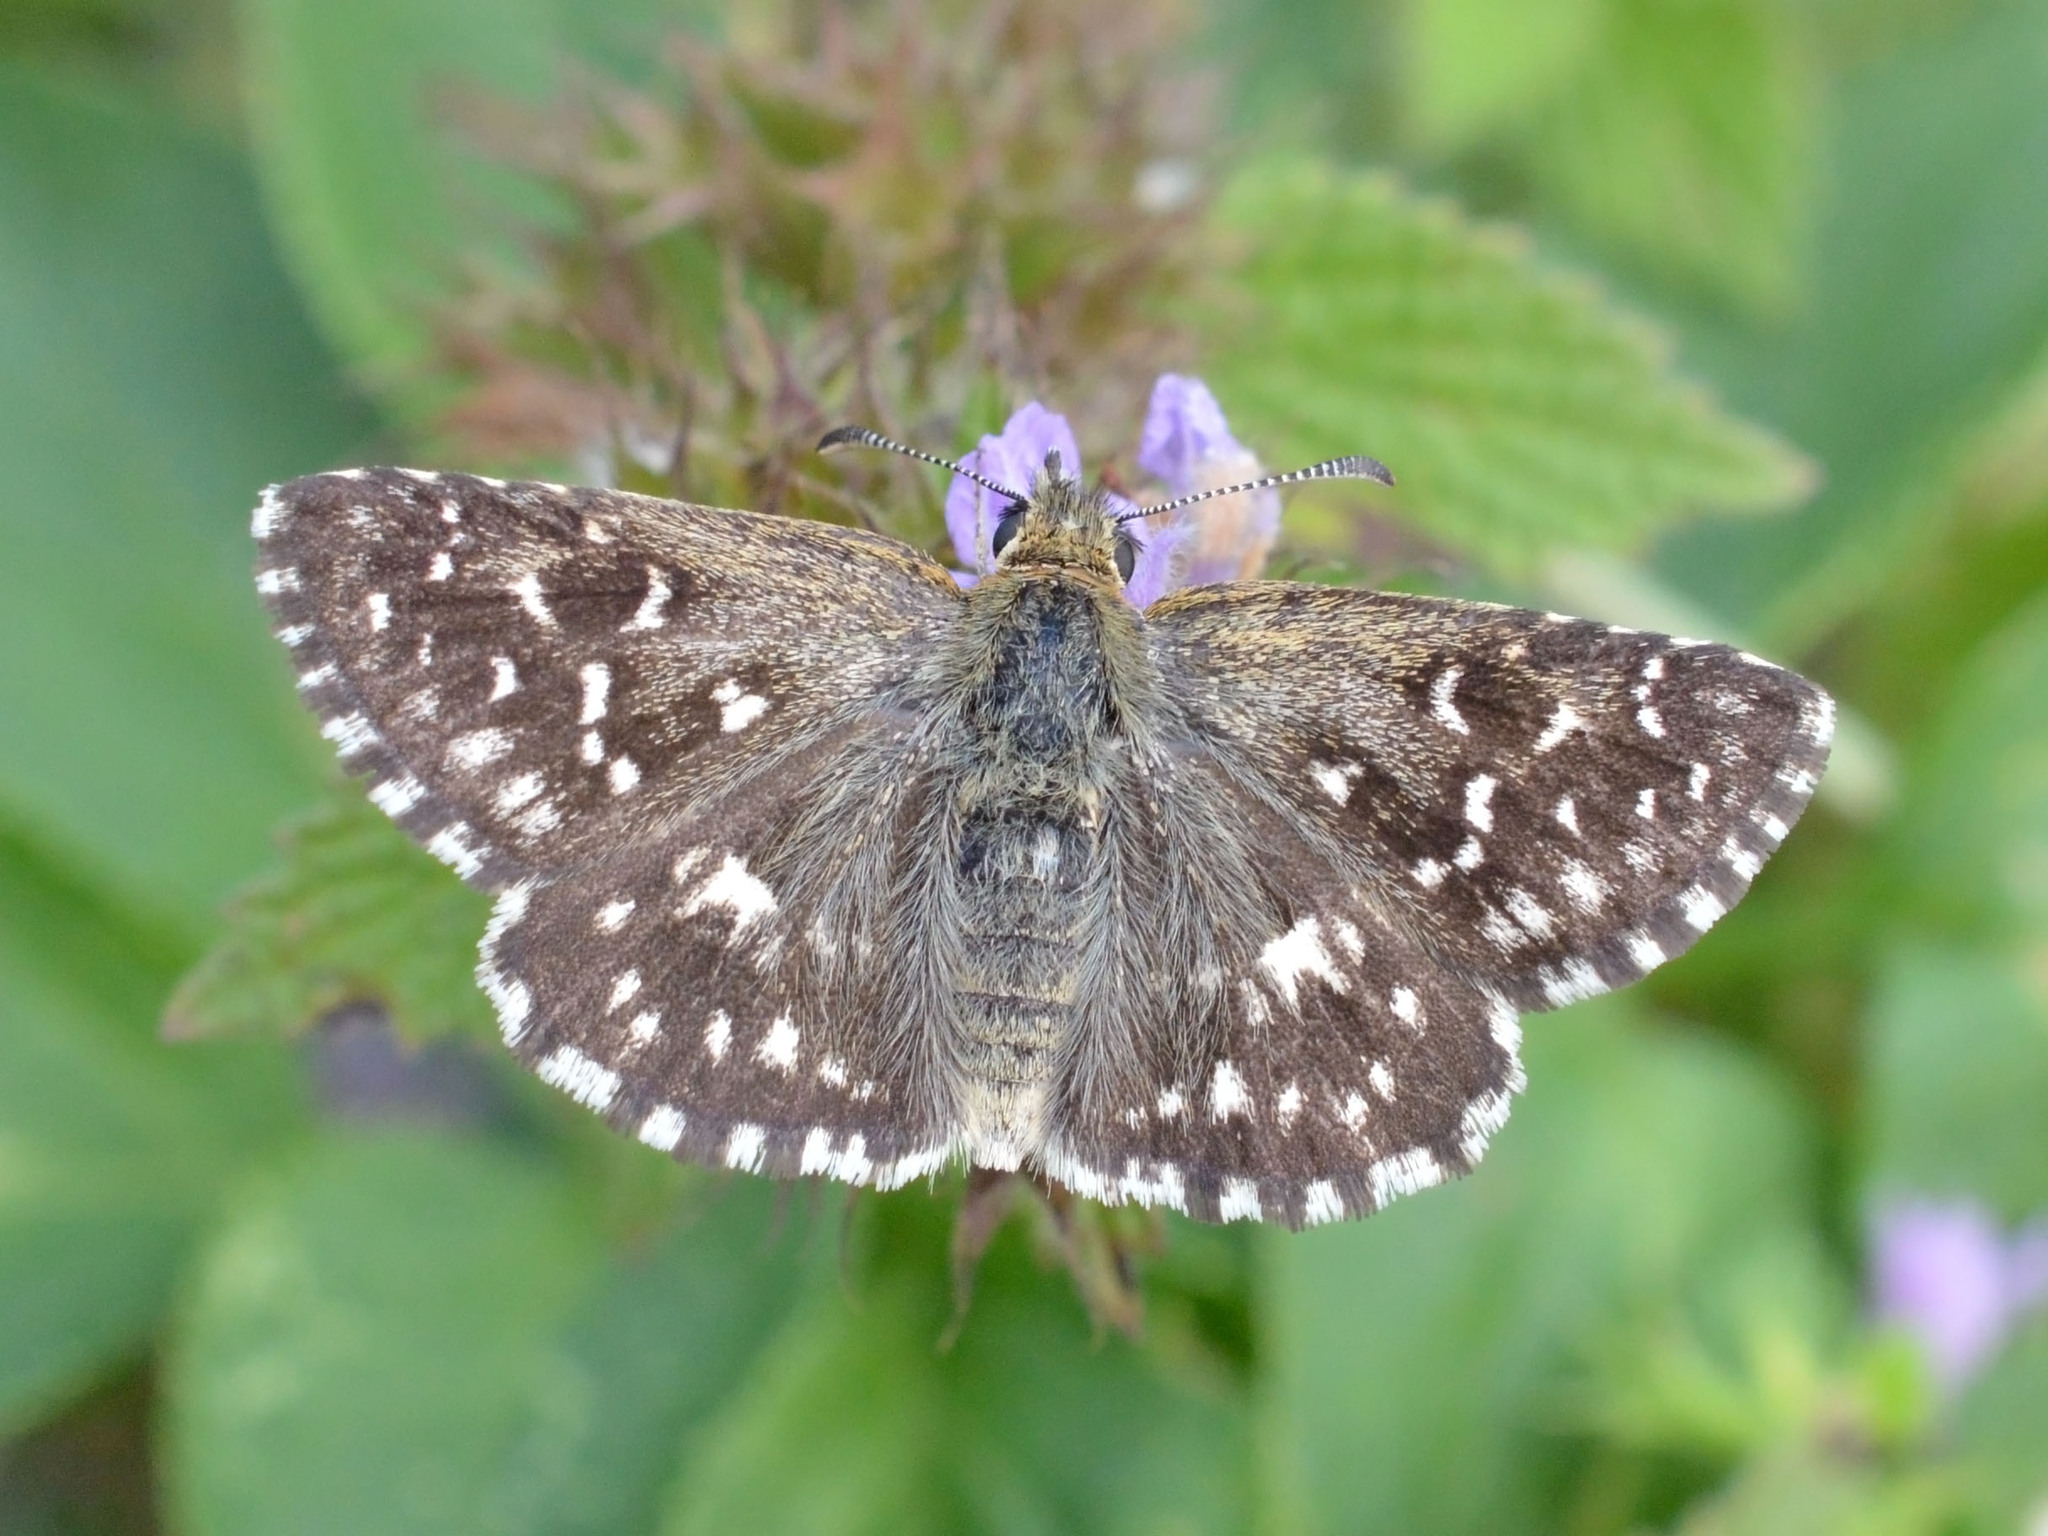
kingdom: Animalia
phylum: Arthropoda
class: Insecta
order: Lepidoptera
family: Hesperiidae
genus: Pyrgus
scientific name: Pyrgus malvae
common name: Grizzled skipper
